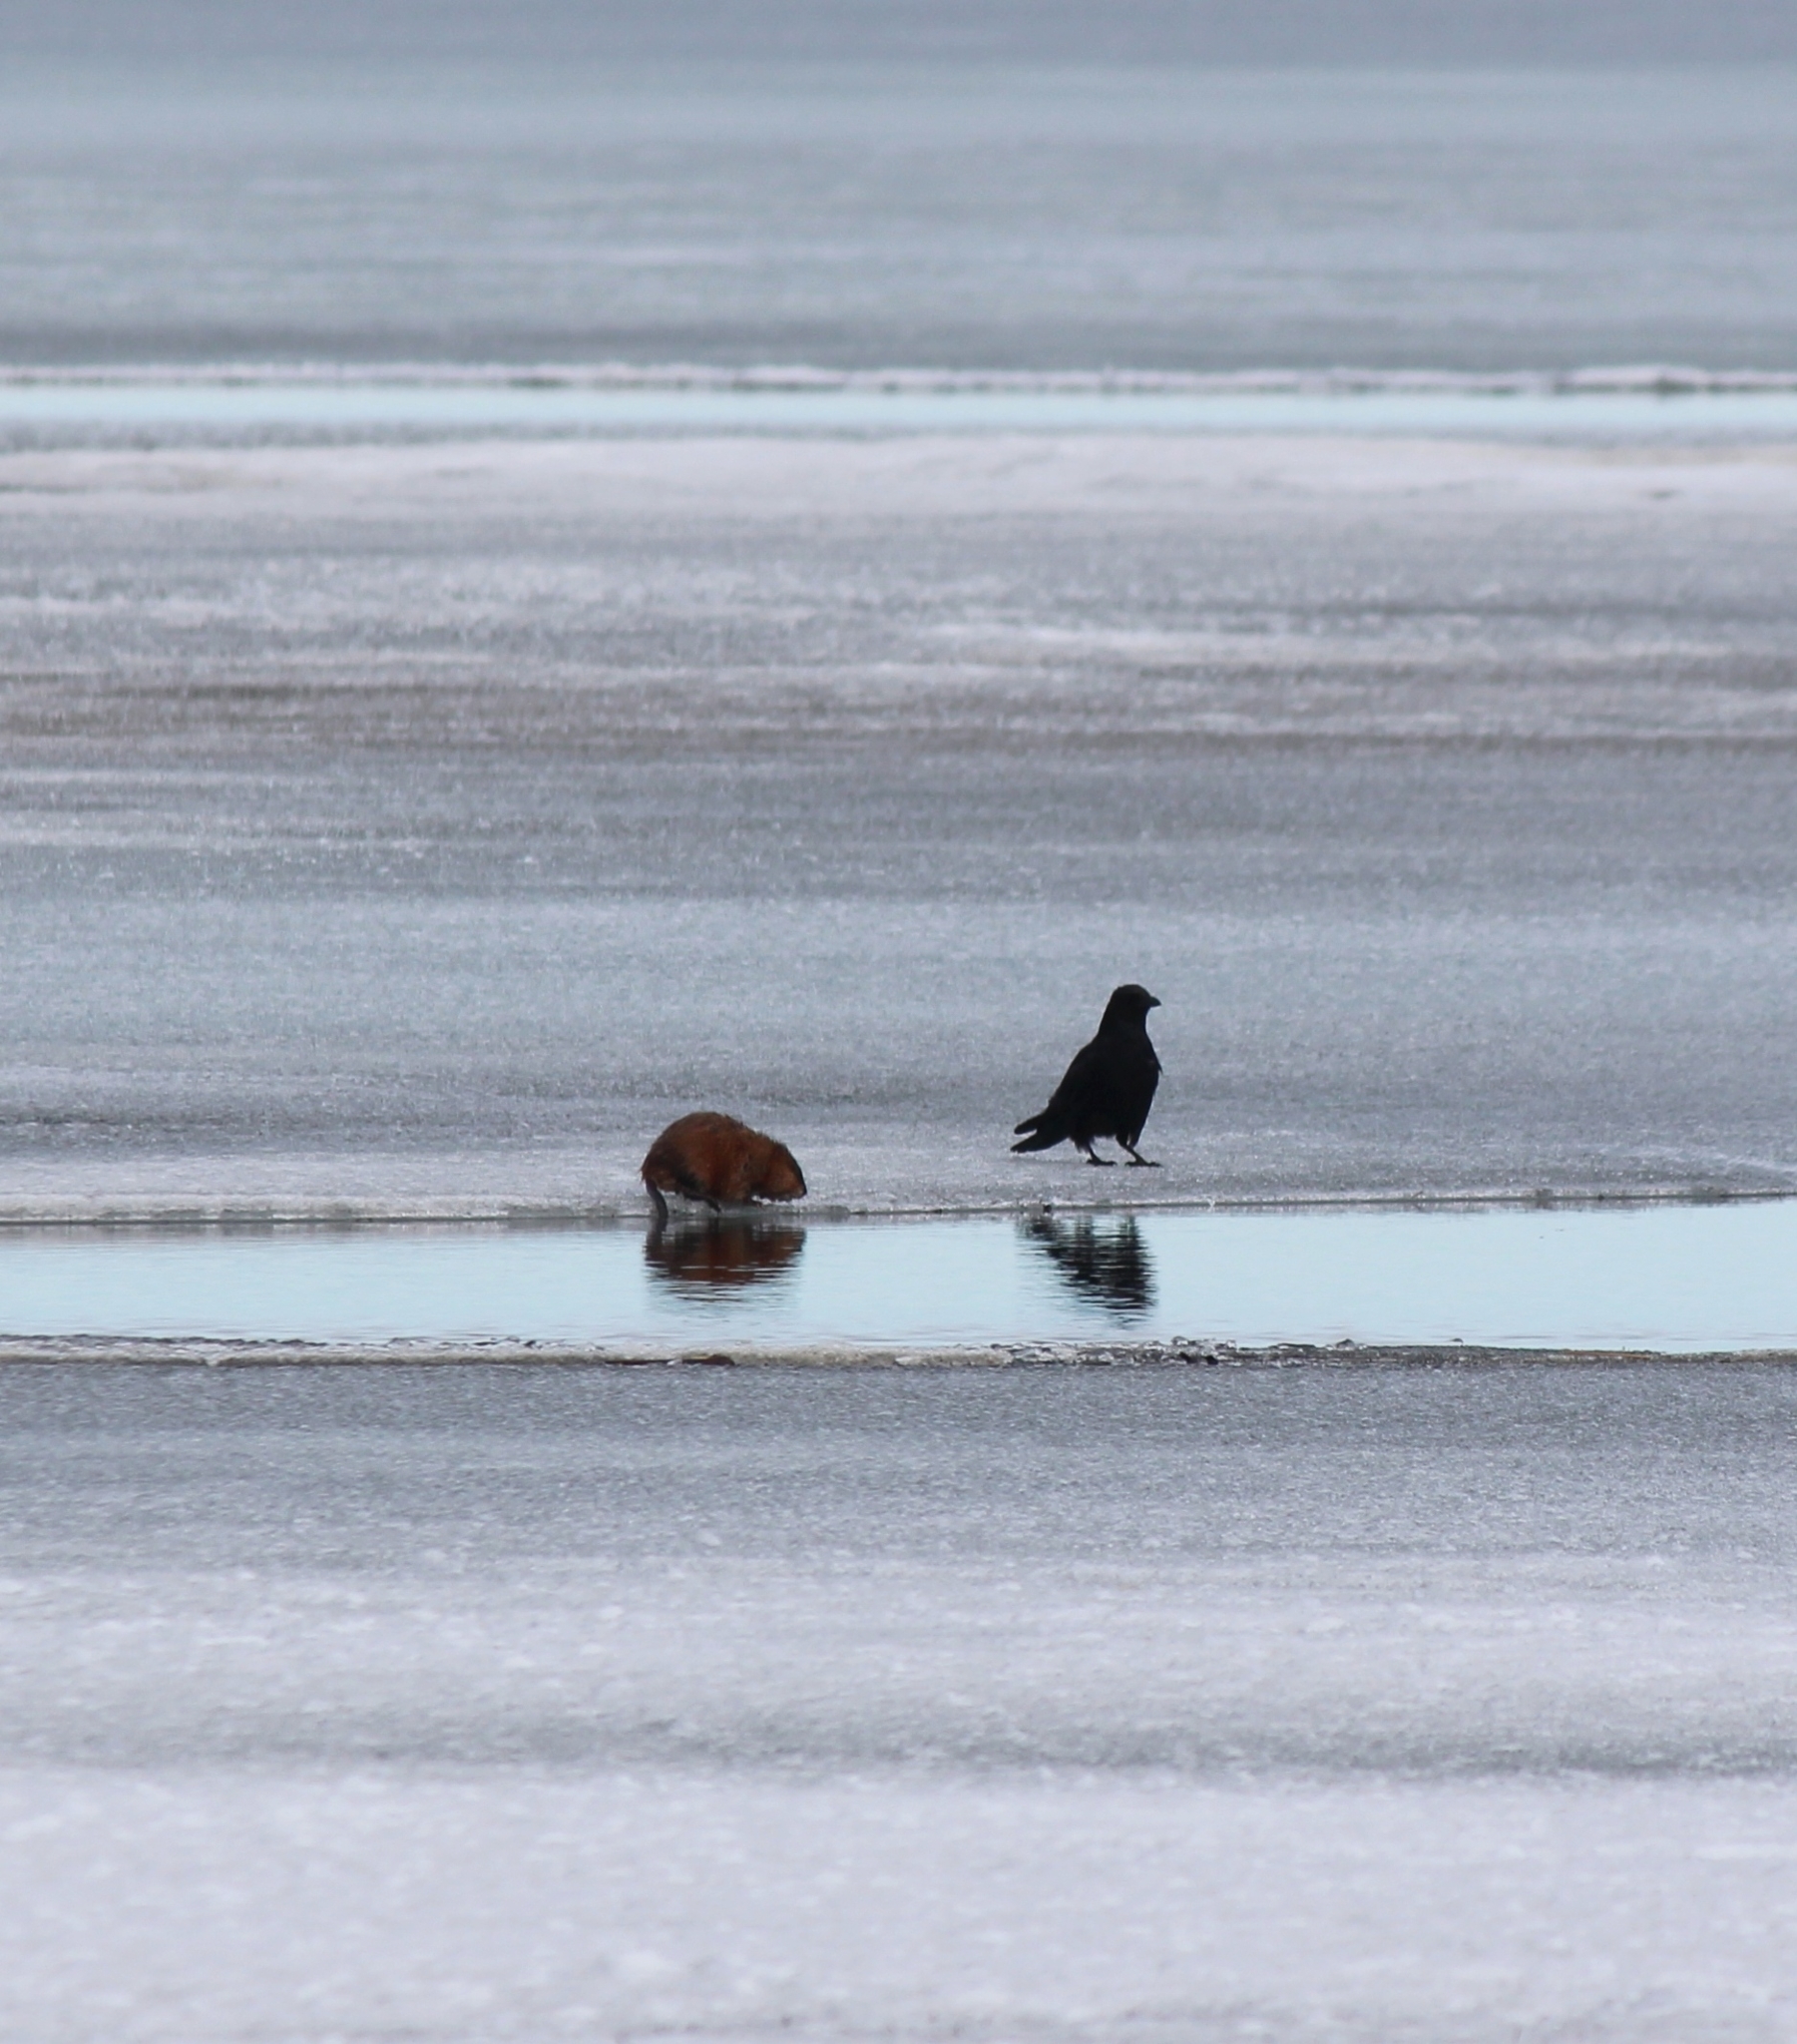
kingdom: Animalia
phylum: Chordata
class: Mammalia
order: Rodentia
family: Cricetidae
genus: Ondatra
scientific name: Ondatra zibethicus
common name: Muskrat
